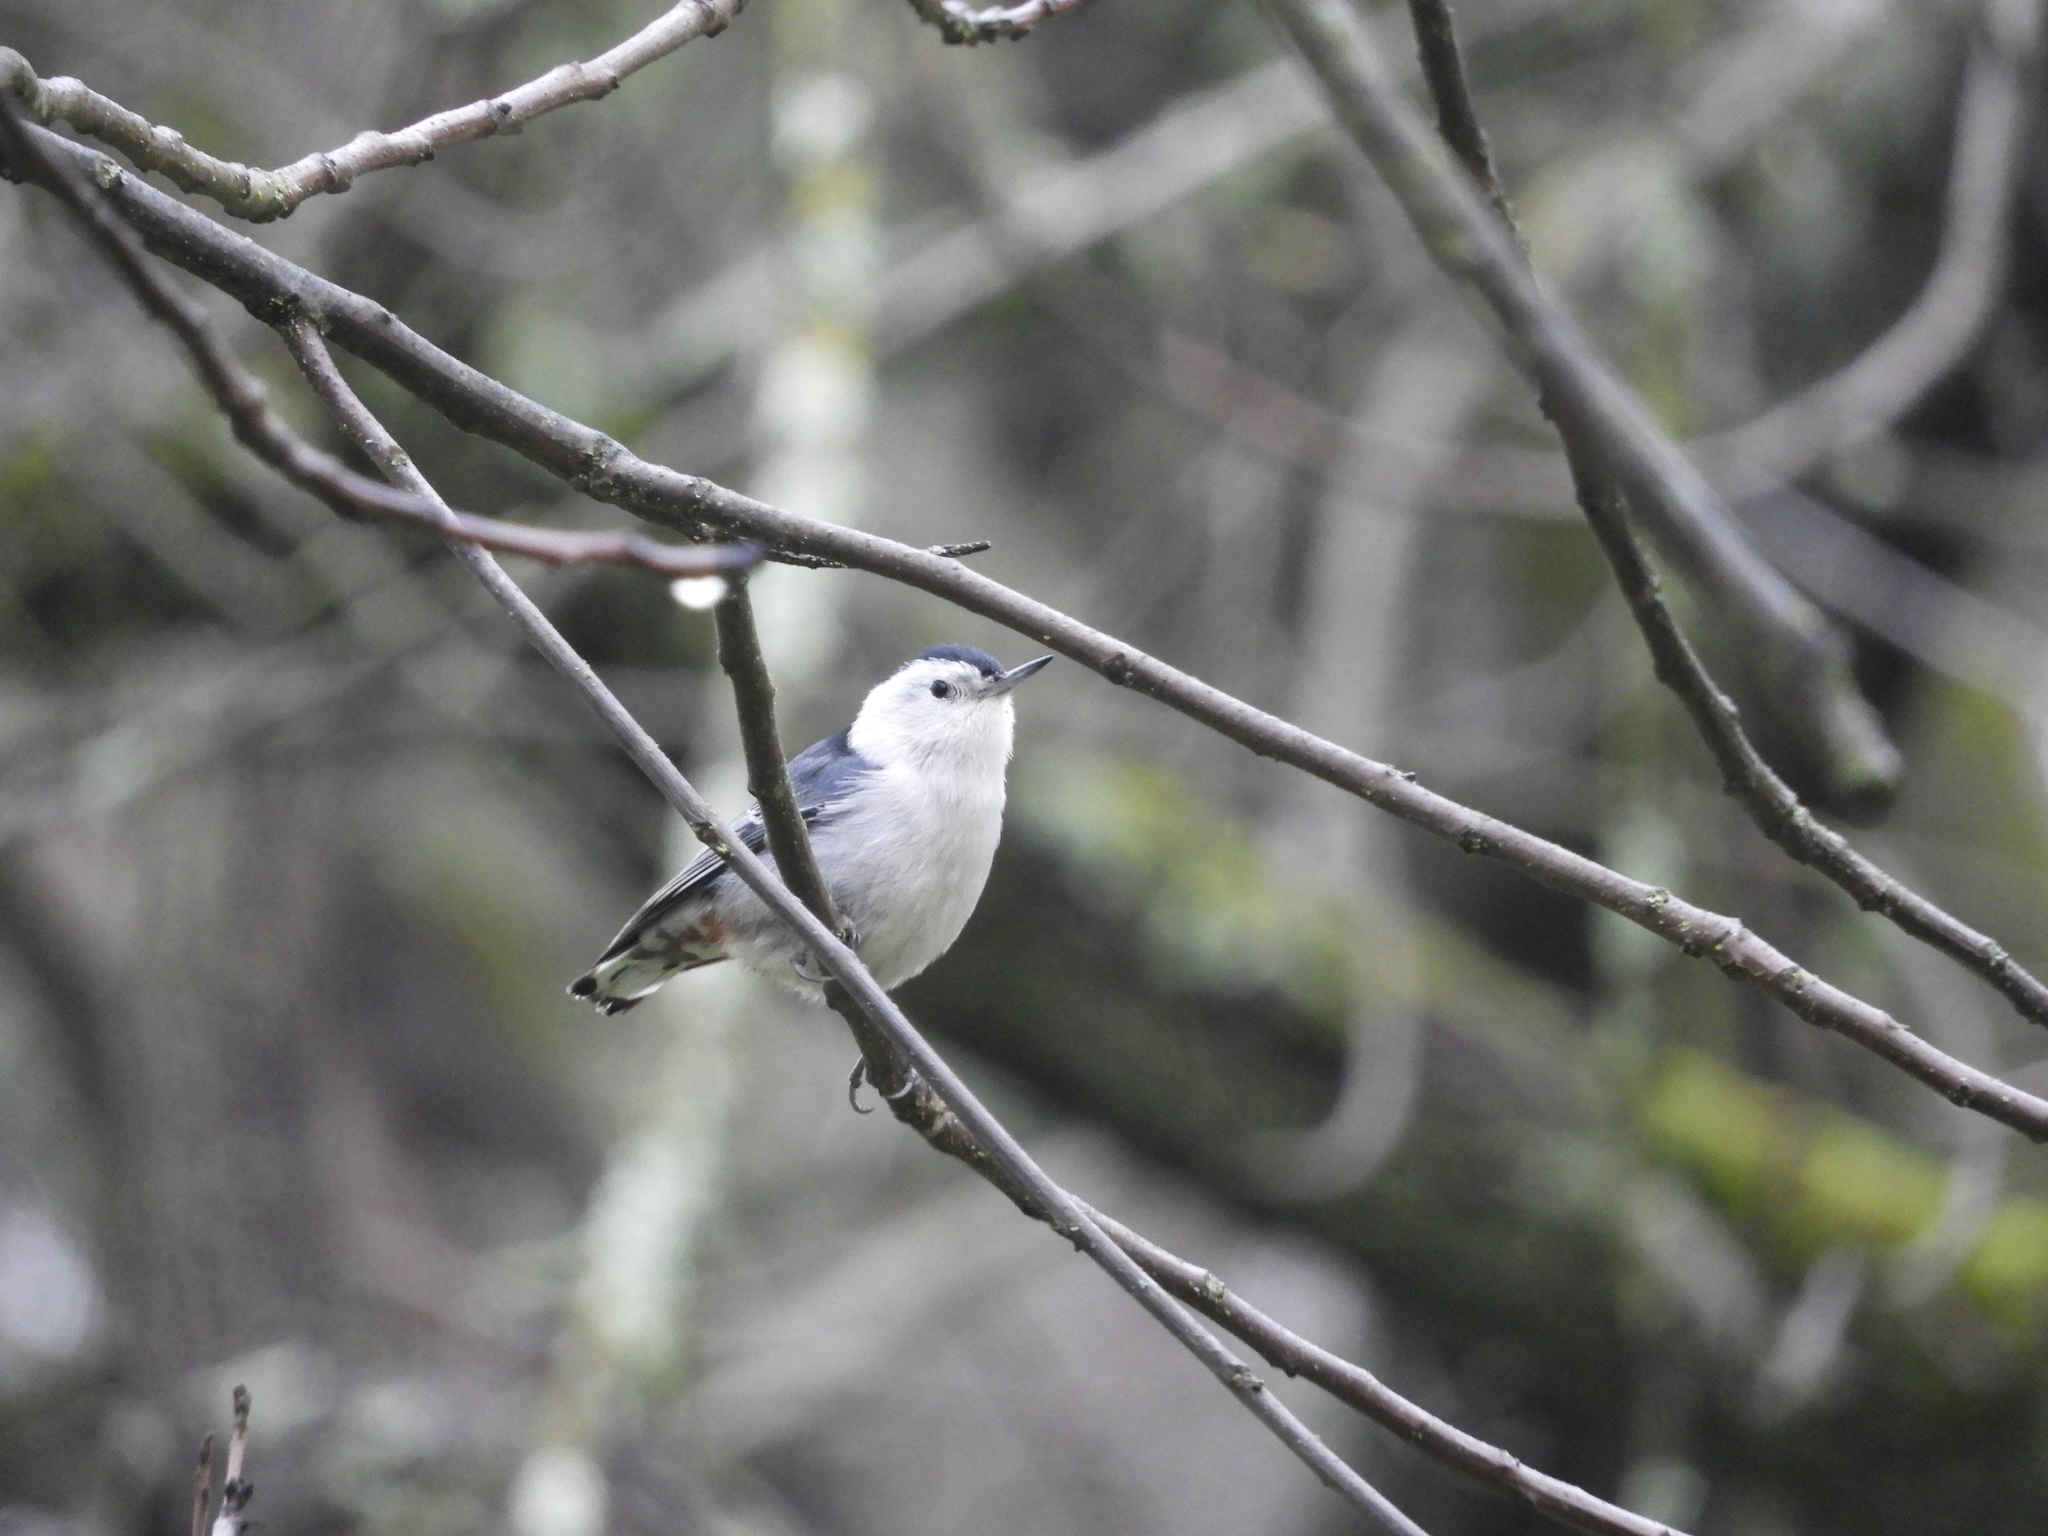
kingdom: Animalia
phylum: Chordata
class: Aves
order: Passeriformes
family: Sittidae
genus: Sitta
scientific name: Sitta carolinensis
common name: White-breasted nuthatch
